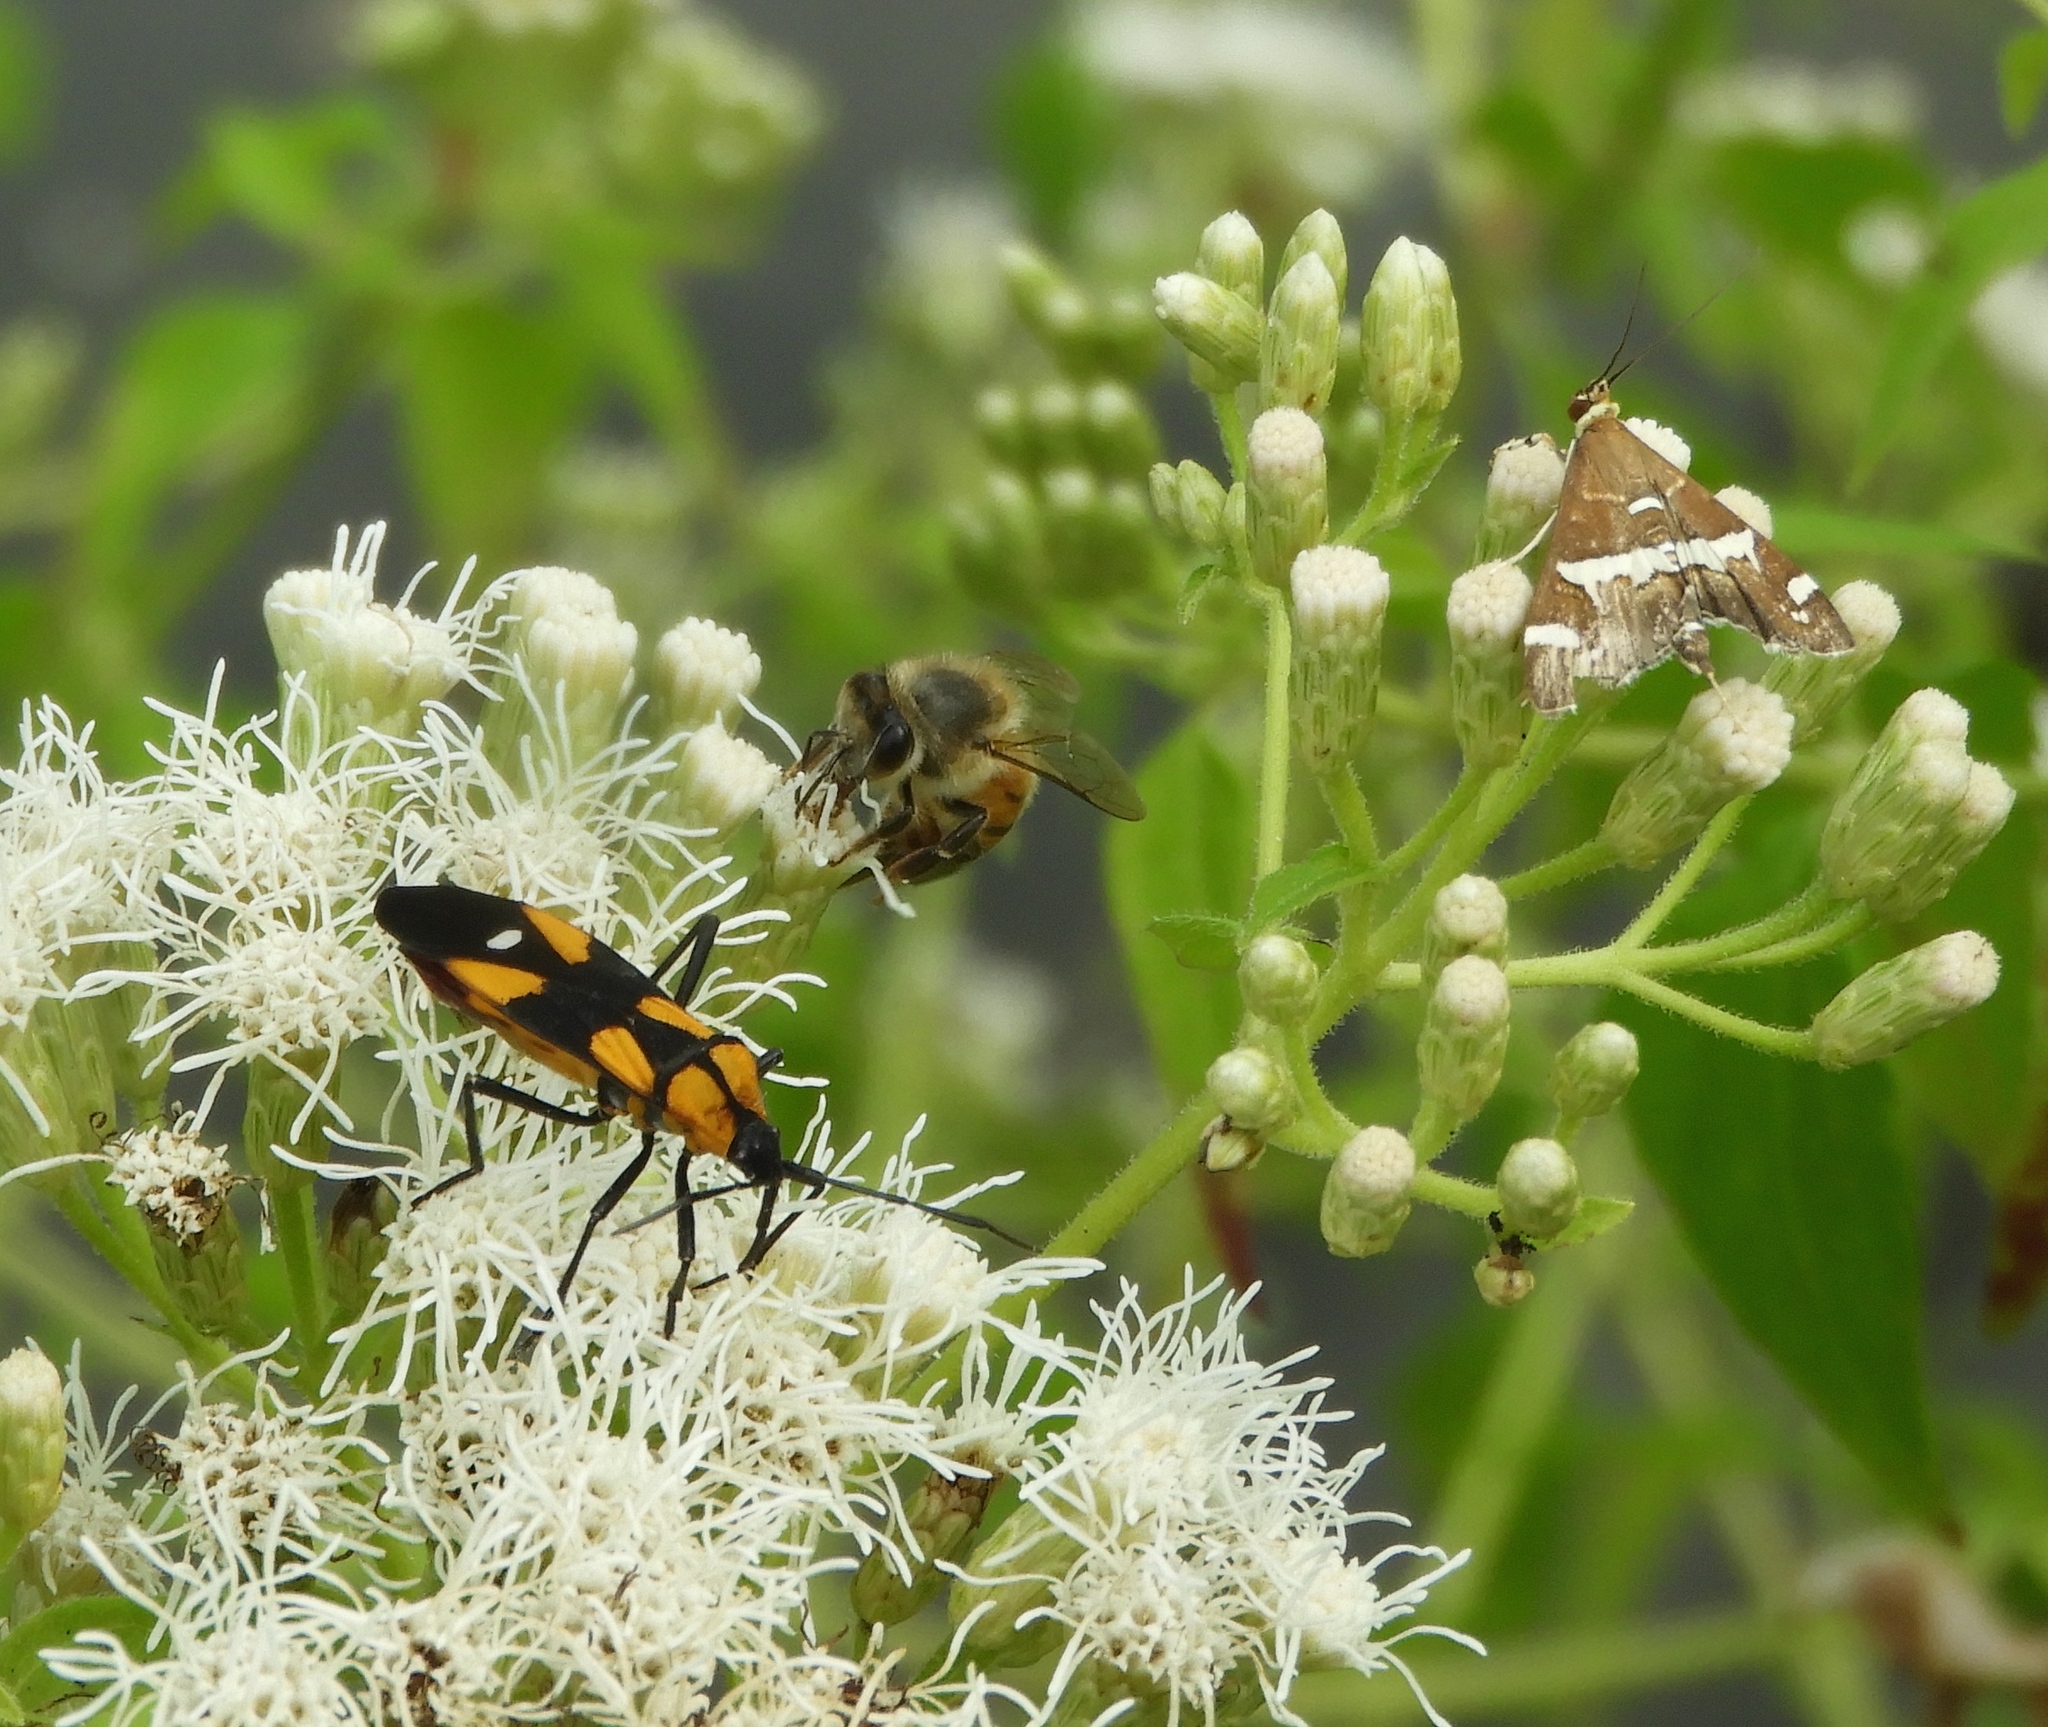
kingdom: Animalia
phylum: Arthropoda
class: Insecta
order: Lepidoptera
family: Crambidae
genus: Spoladea
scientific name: Spoladea recurvalis
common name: Beet webworm moth
